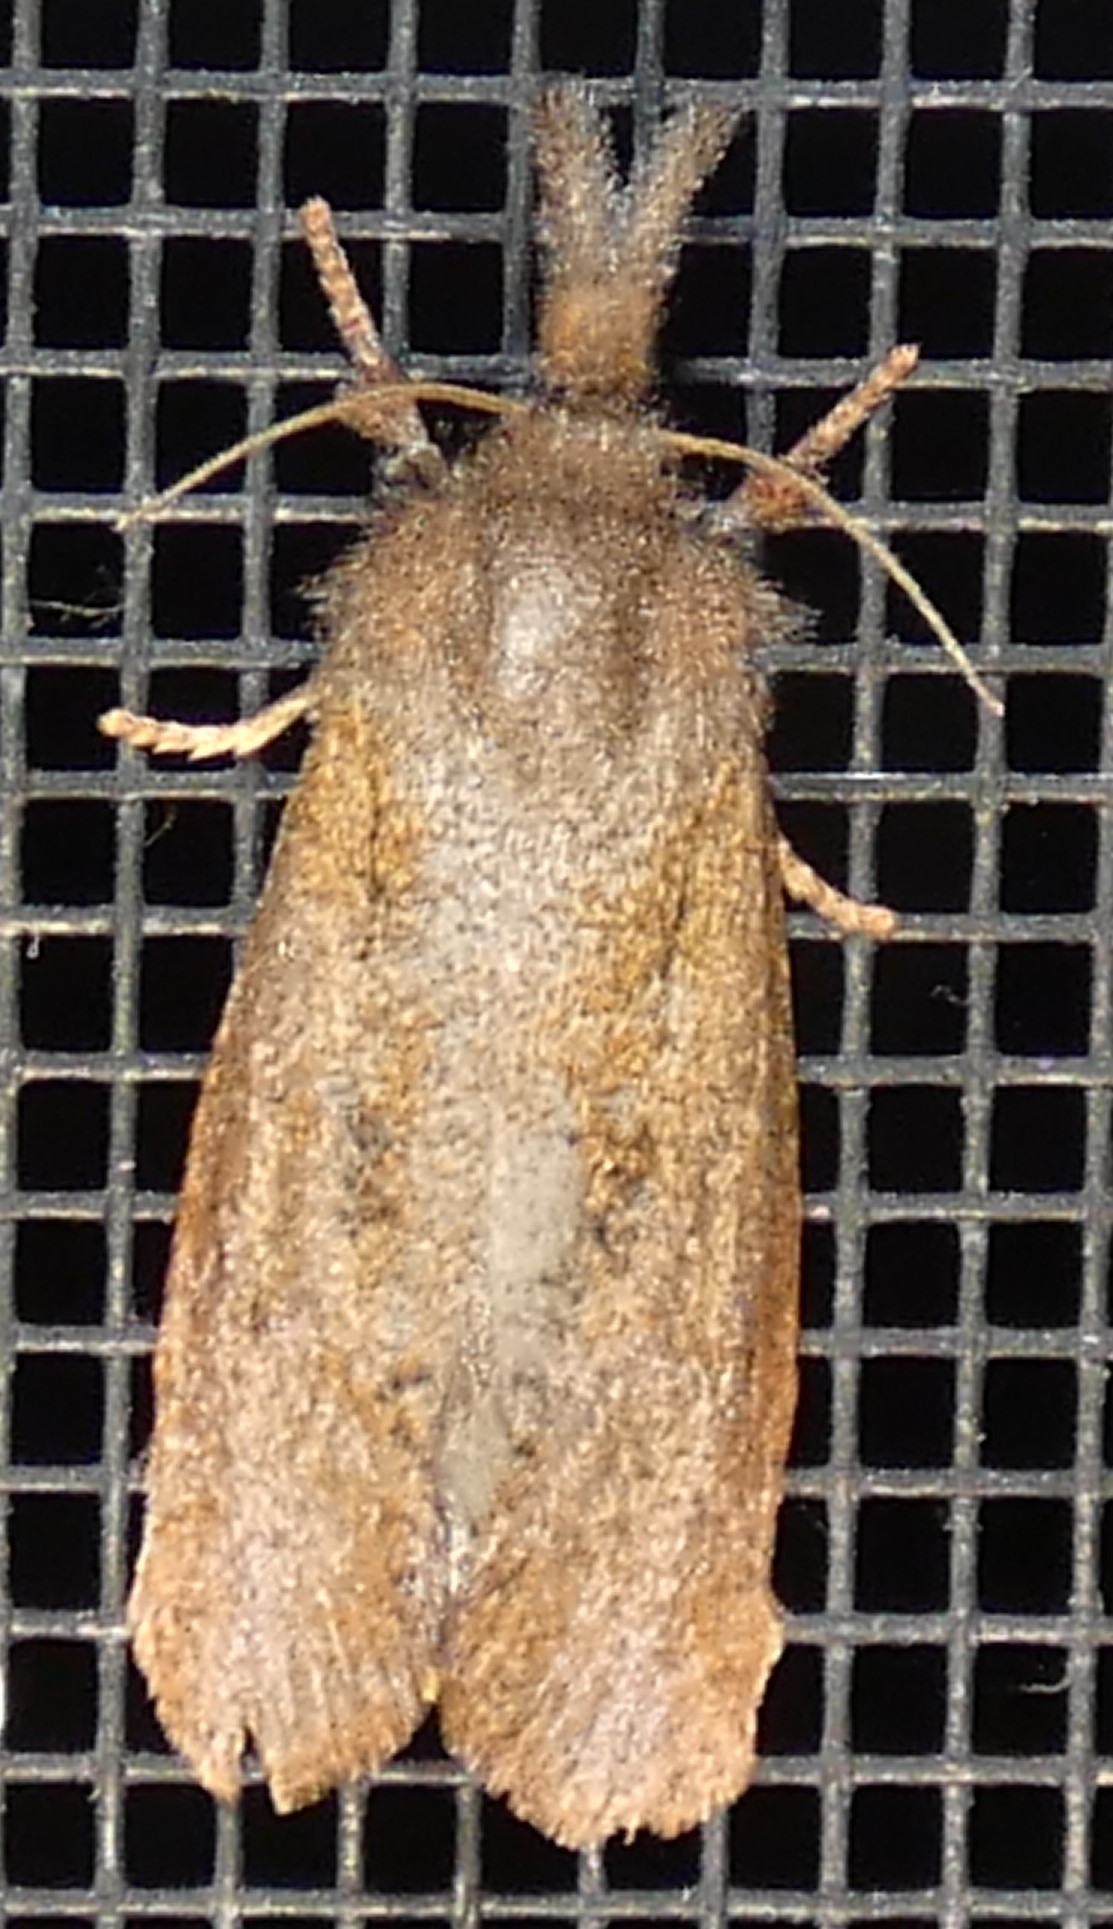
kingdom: Animalia
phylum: Arthropoda
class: Insecta
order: Lepidoptera
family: Tineidae
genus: Acrolophus
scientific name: Acrolophus plumifrontella
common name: Eastern grass tubeworm moth
